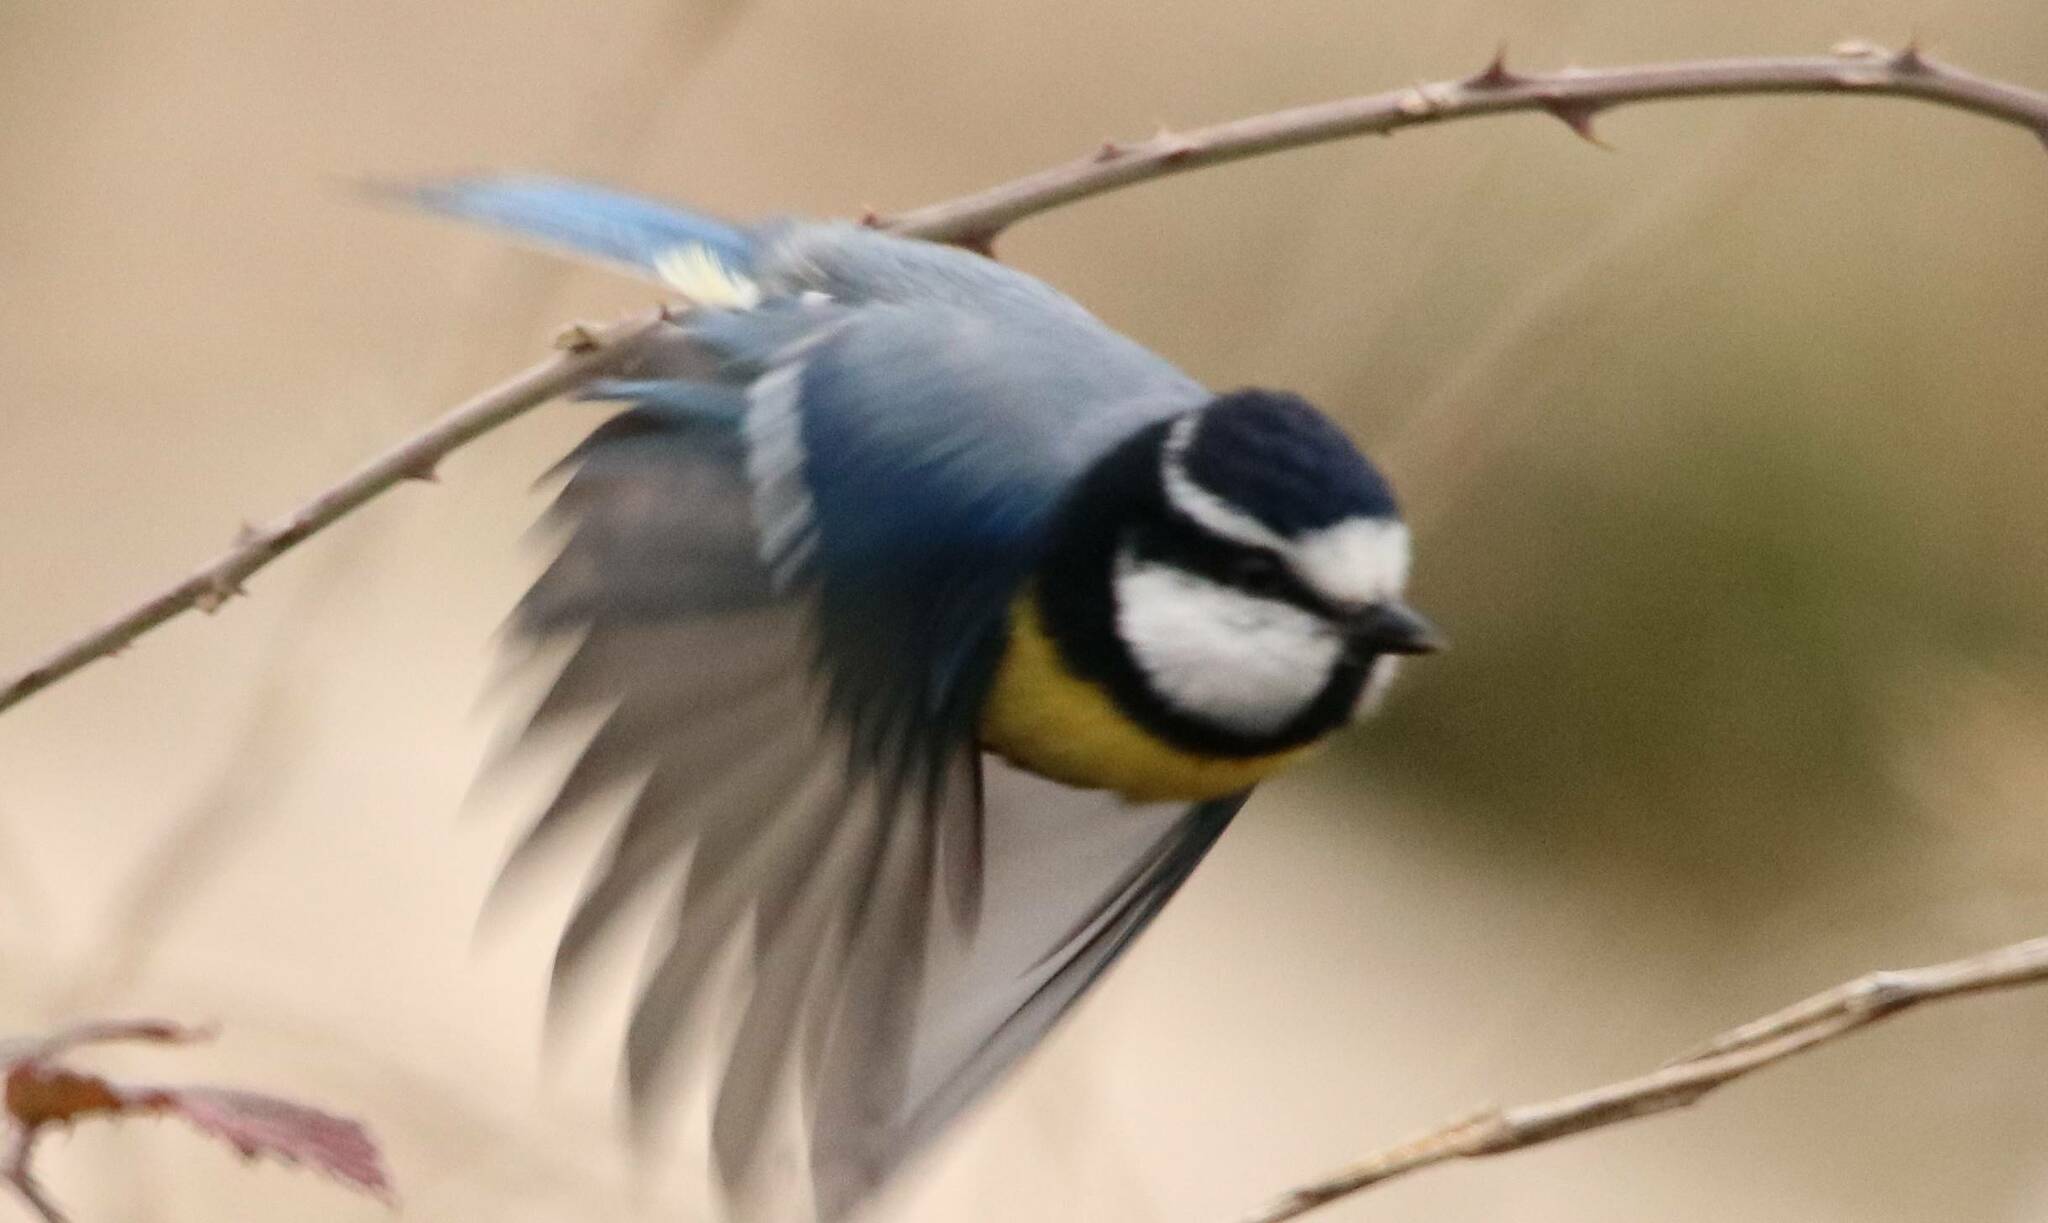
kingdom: Animalia
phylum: Chordata
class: Aves
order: Passeriformes
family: Paridae
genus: Cyanistes
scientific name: Cyanistes teneriffae
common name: African blue tit
